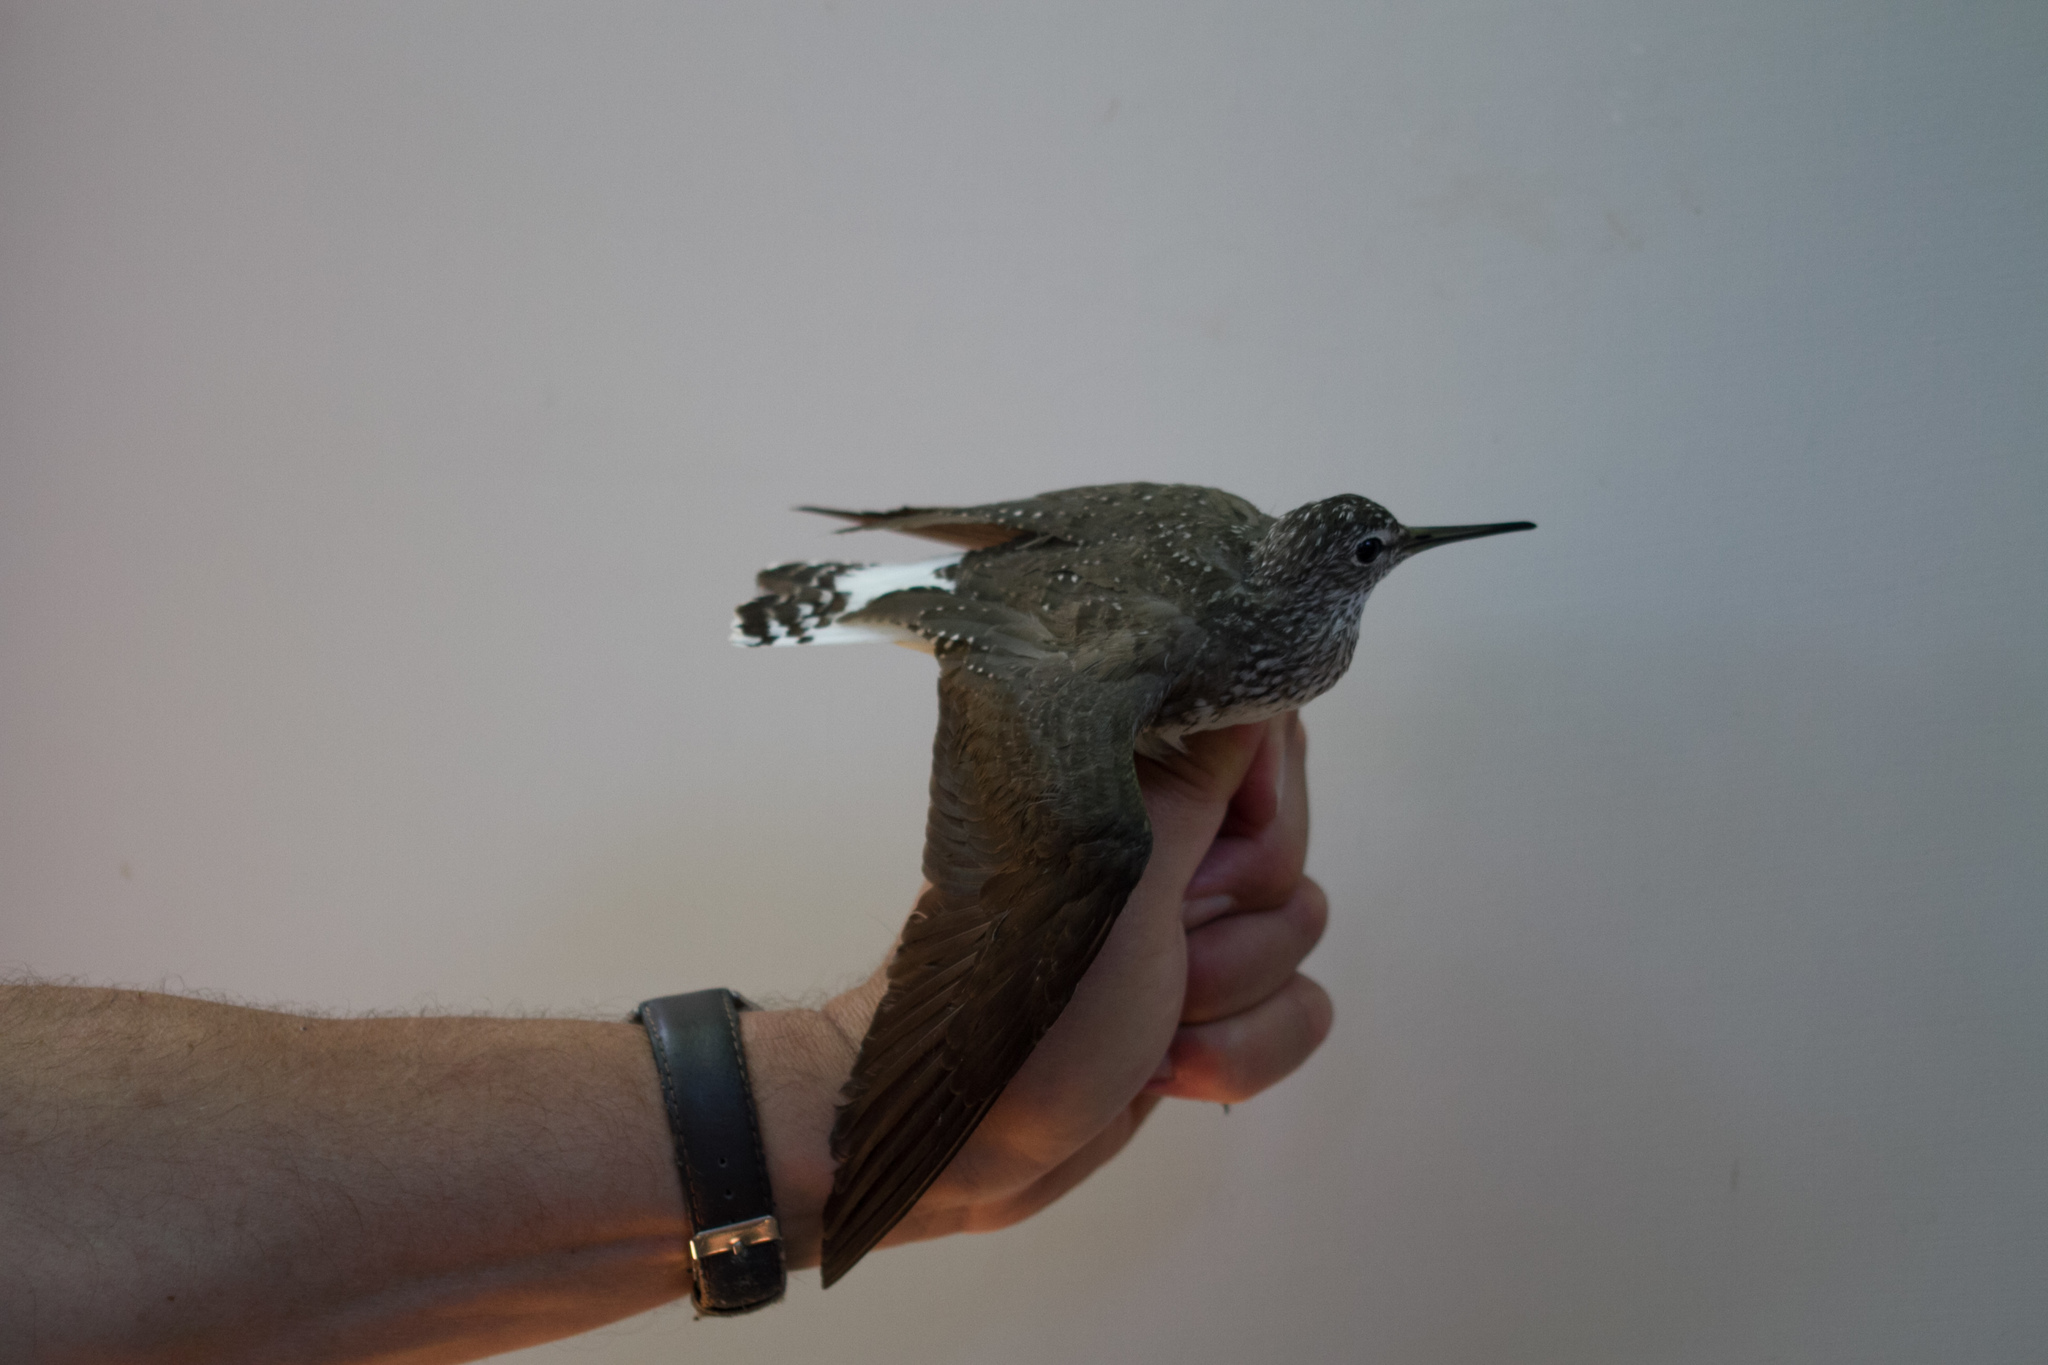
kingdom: Animalia
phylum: Chordata
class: Aves
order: Charadriiformes
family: Scolopacidae
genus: Tringa
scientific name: Tringa ochropus
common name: Green sandpiper
